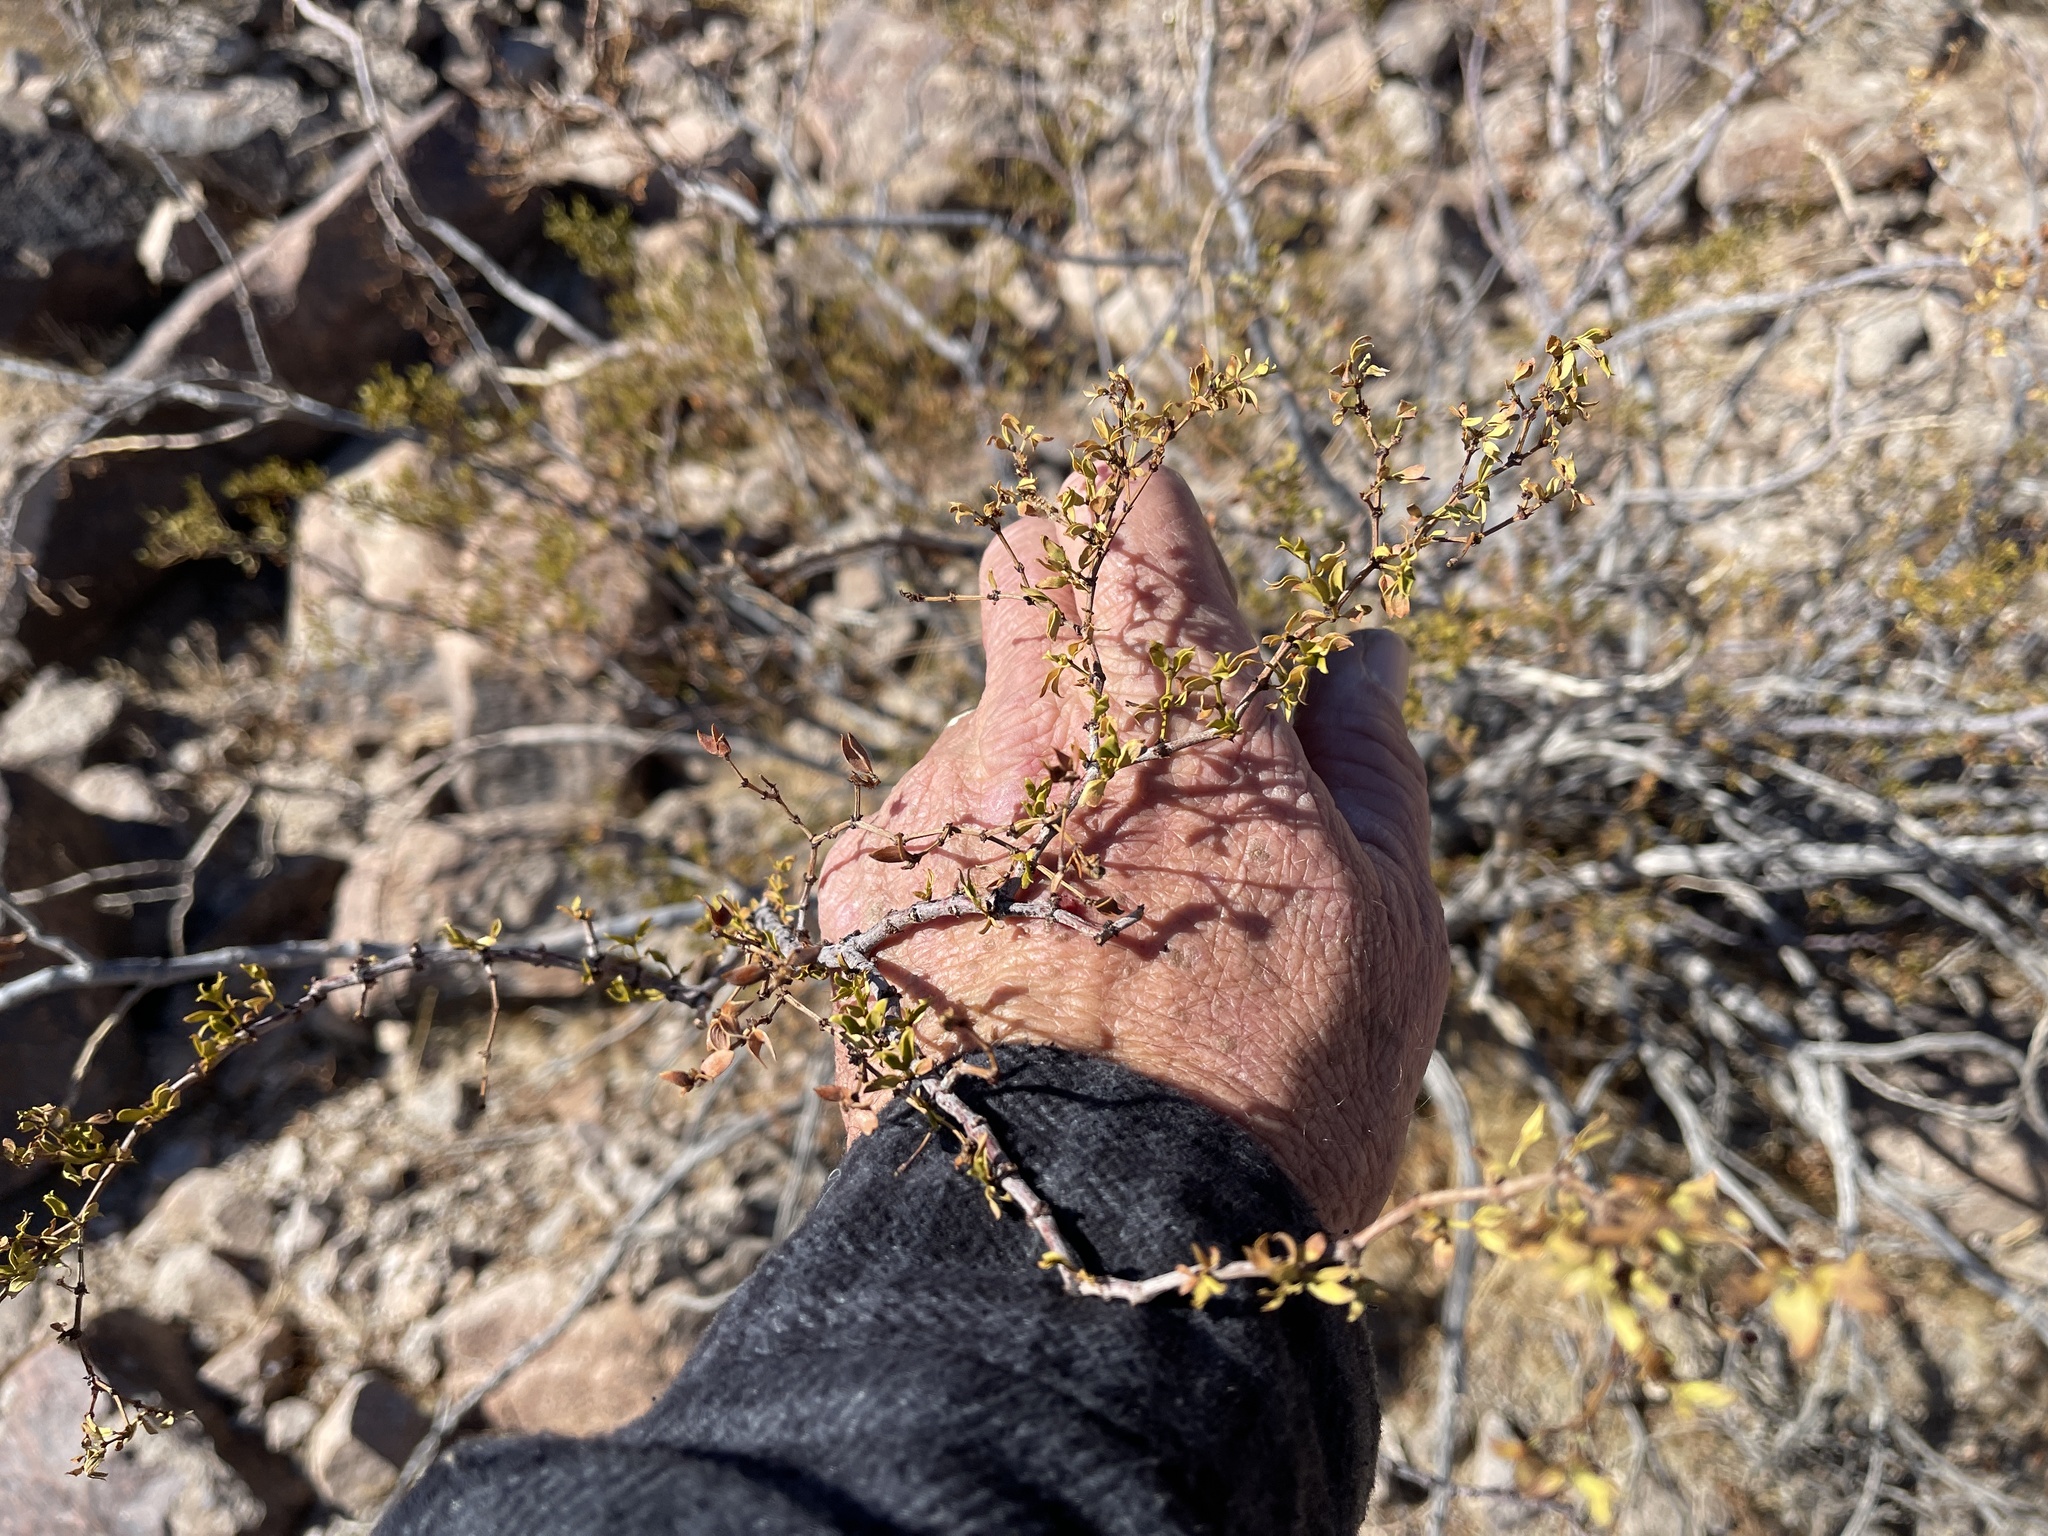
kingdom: Plantae
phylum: Tracheophyta
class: Magnoliopsida
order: Zygophyllales
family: Zygophyllaceae
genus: Larrea
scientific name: Larrea tridentata
